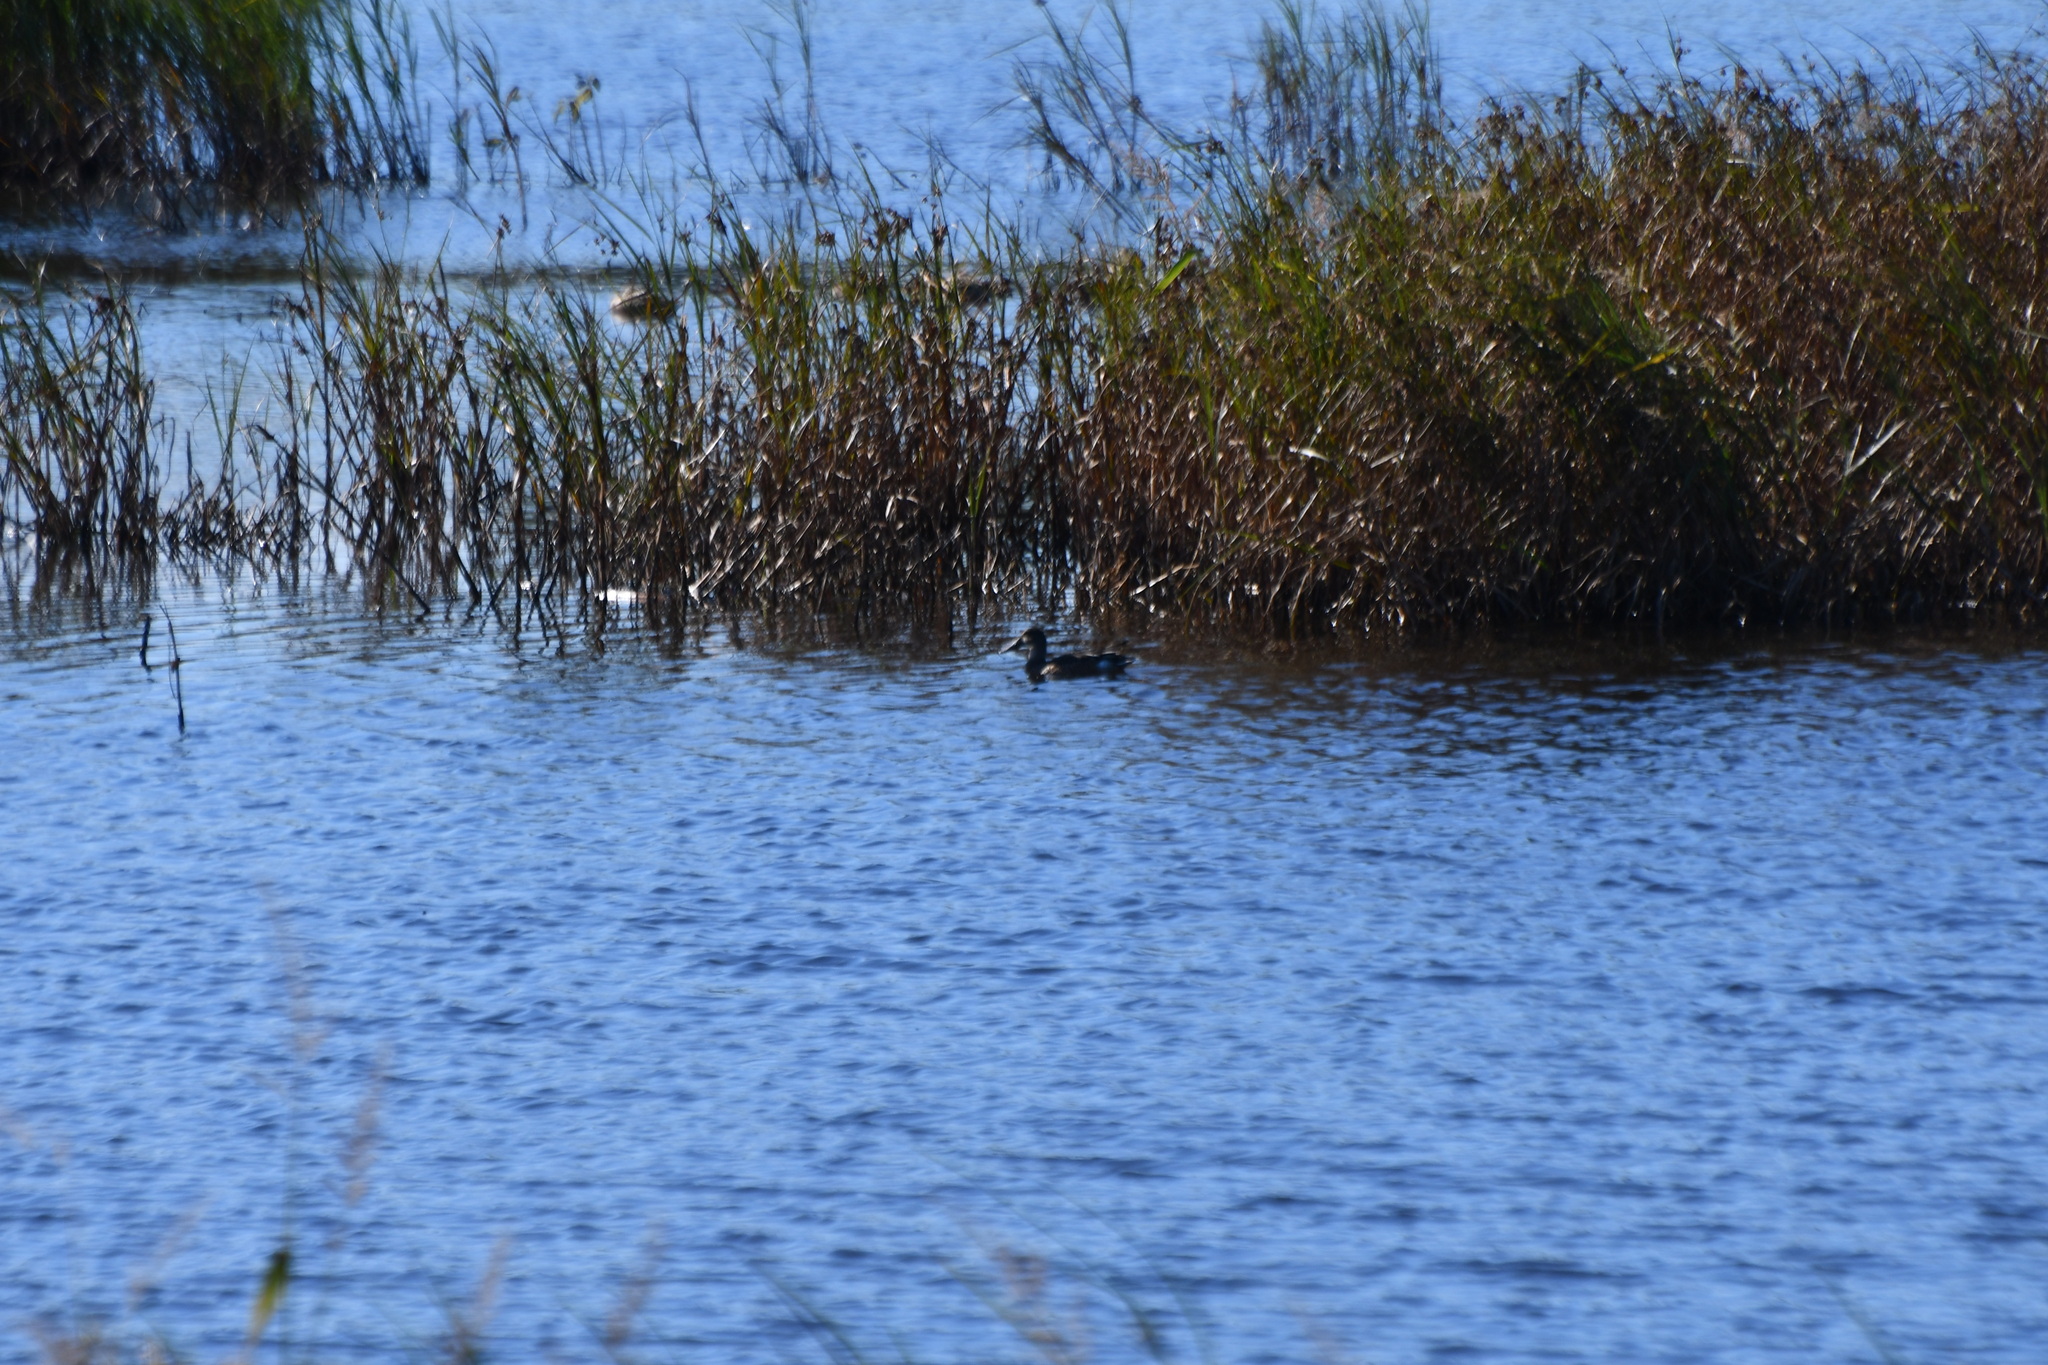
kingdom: Animalia
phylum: Chordata
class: Aves
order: Anseriformes
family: Anatidae
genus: Spatula
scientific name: Spatula clypeata
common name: Northern shoveler
